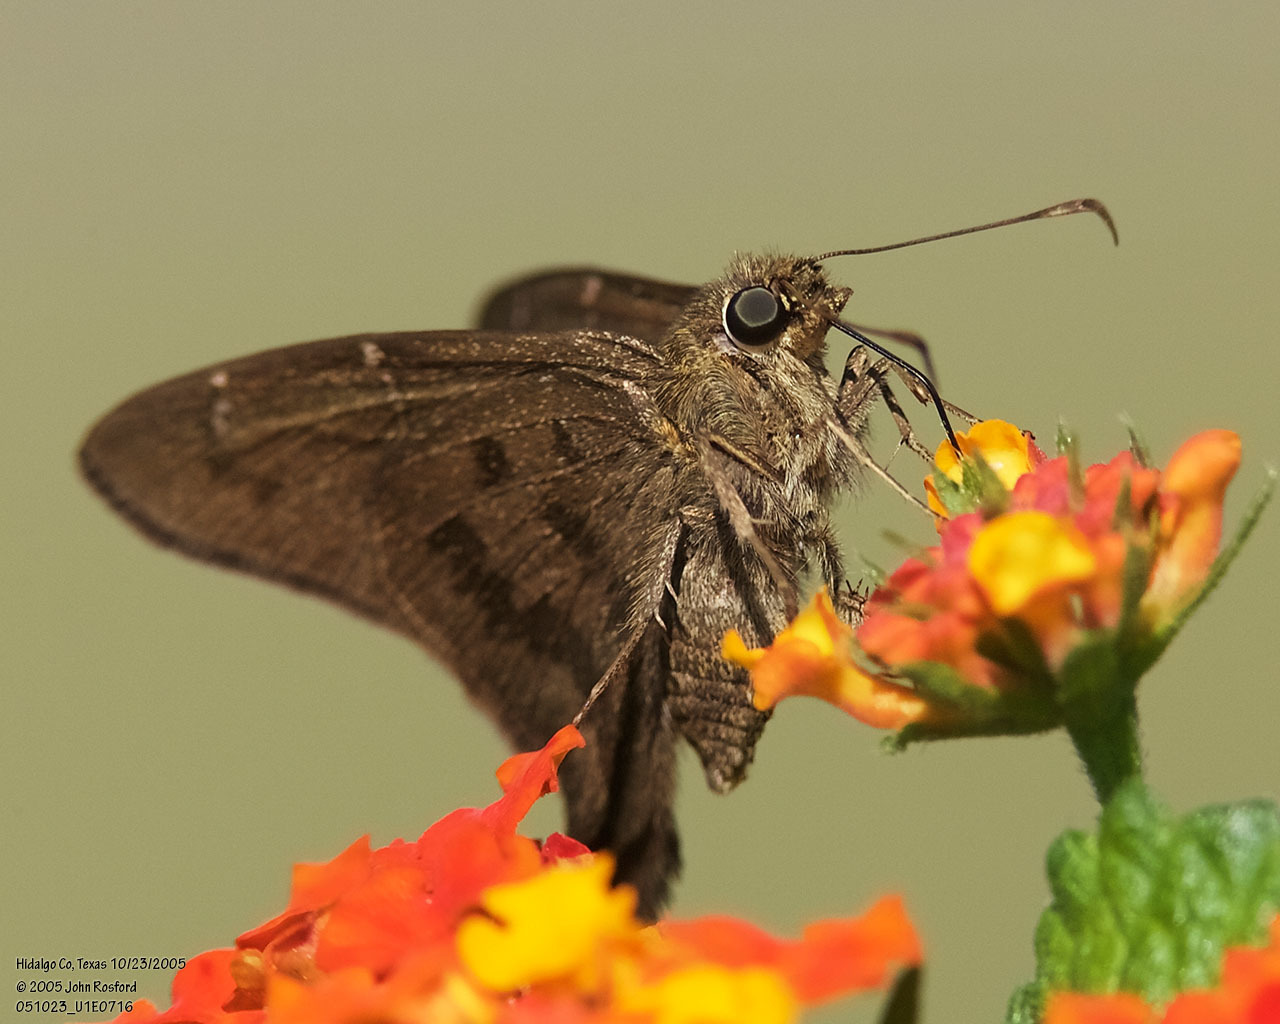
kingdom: Animalia
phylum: Arthropoda
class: Insecta
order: Lepidoptera
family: Hesperiidae
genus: Urbanus
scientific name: Urbanus procne
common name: Brown longtail
